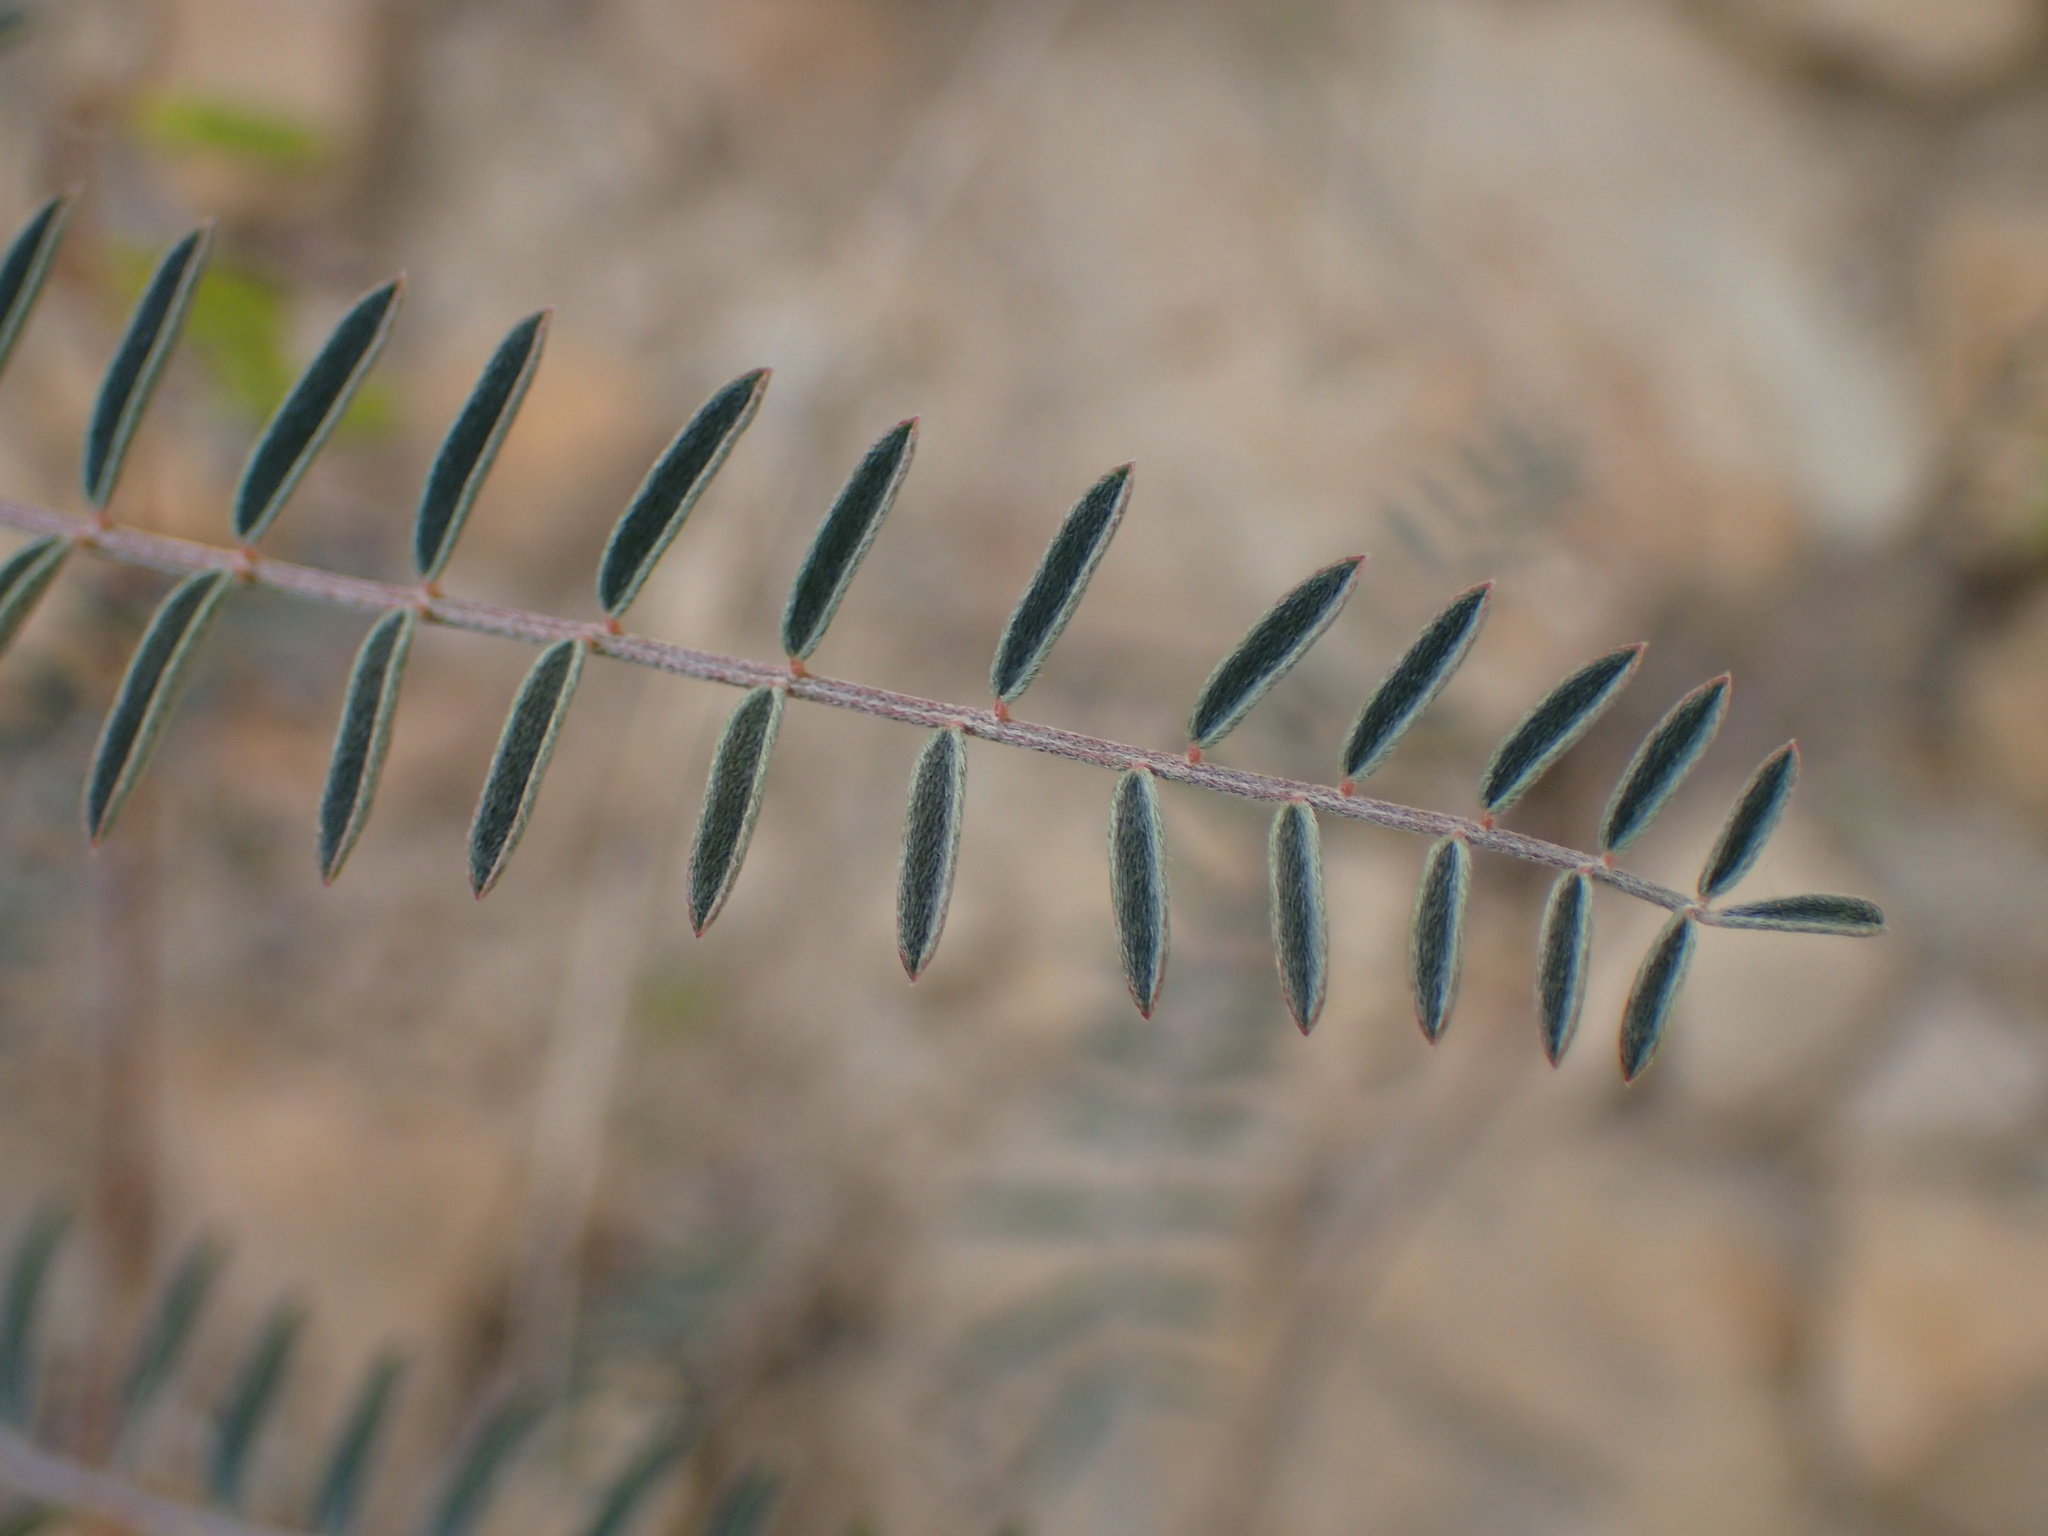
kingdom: Plantae
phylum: Tracheophyta
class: Magnoliopsida
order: Fabales
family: Fabaceae
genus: Astragalus
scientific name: Astragalus trichopodus
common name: Santa barbara milk-vetch
